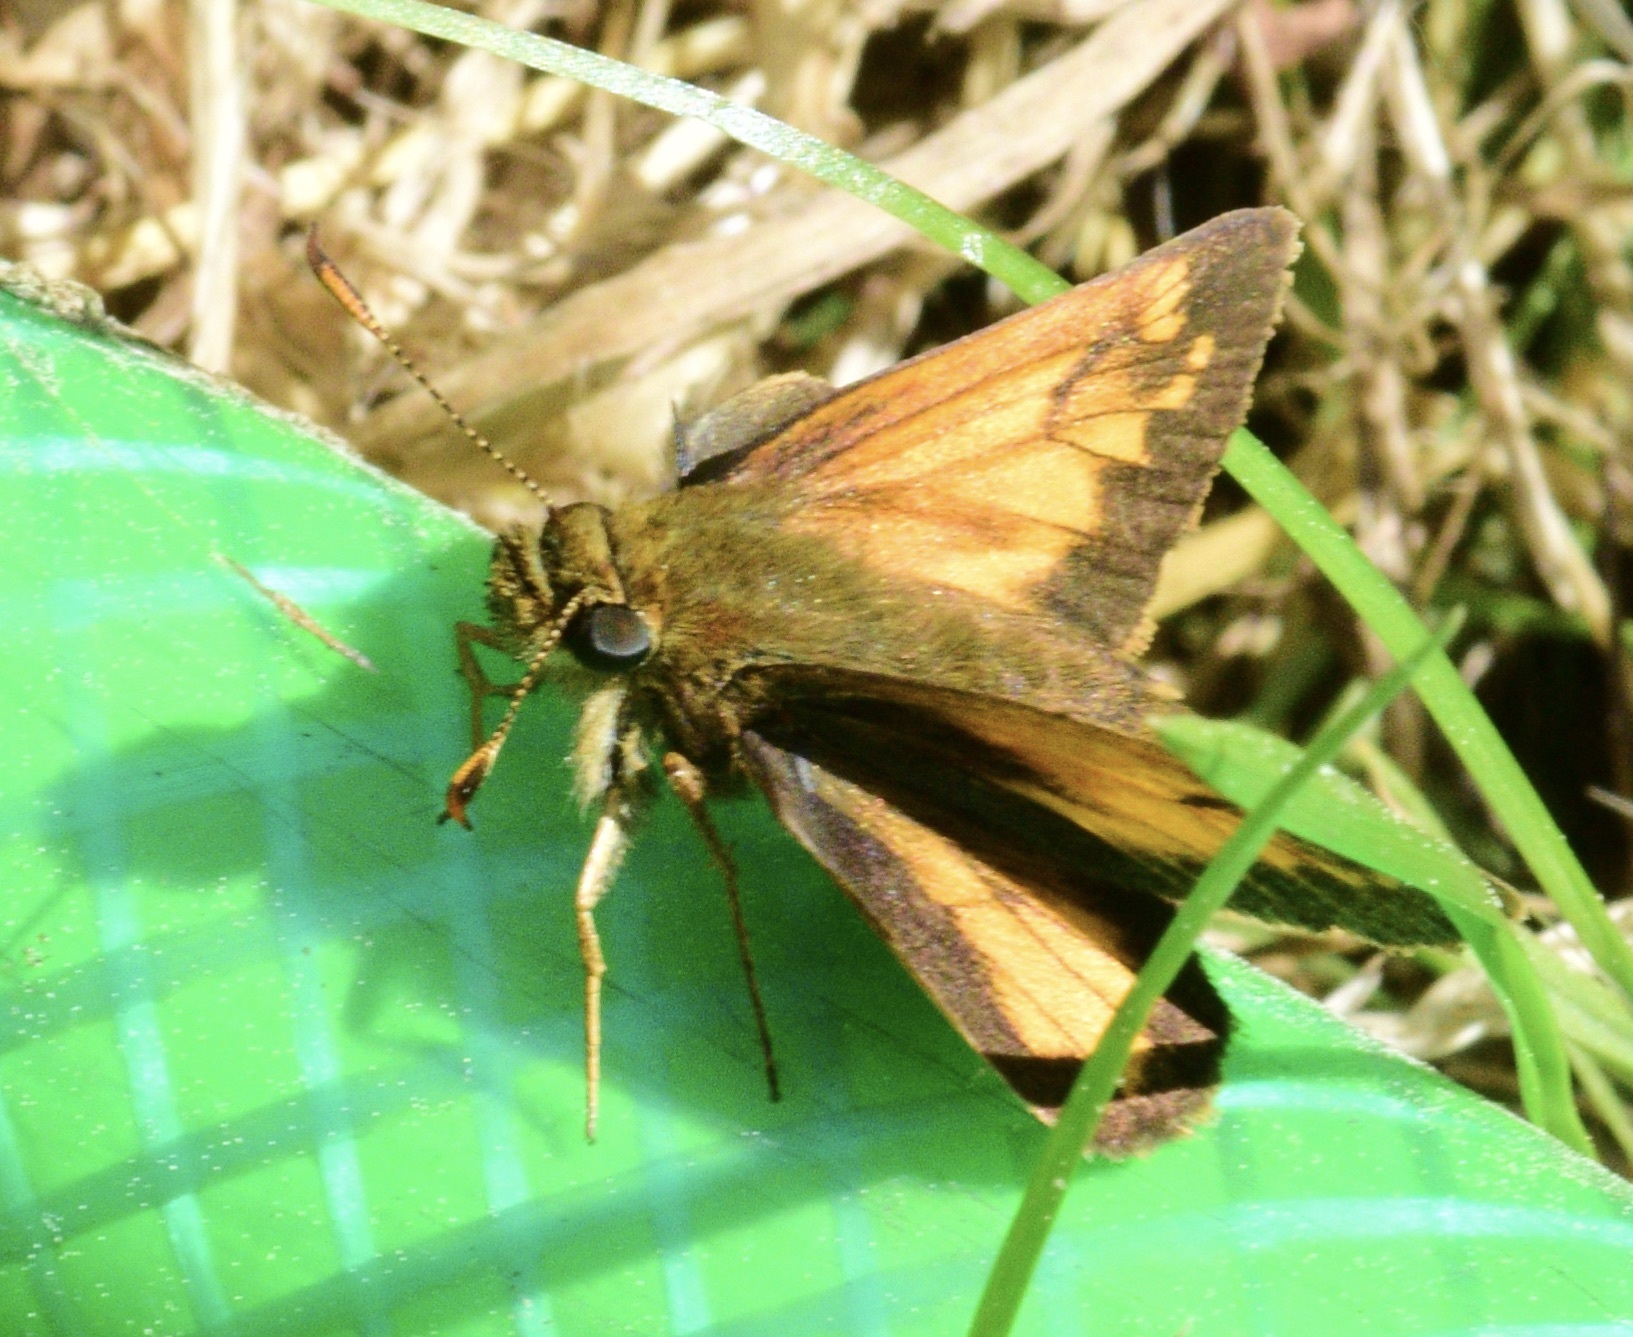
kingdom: Animalia
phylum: Arthropoda
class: Insecta
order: Lepidoptera
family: Hesperiidae
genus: Lon
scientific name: Lon hobomok
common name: Hobomok skipper
